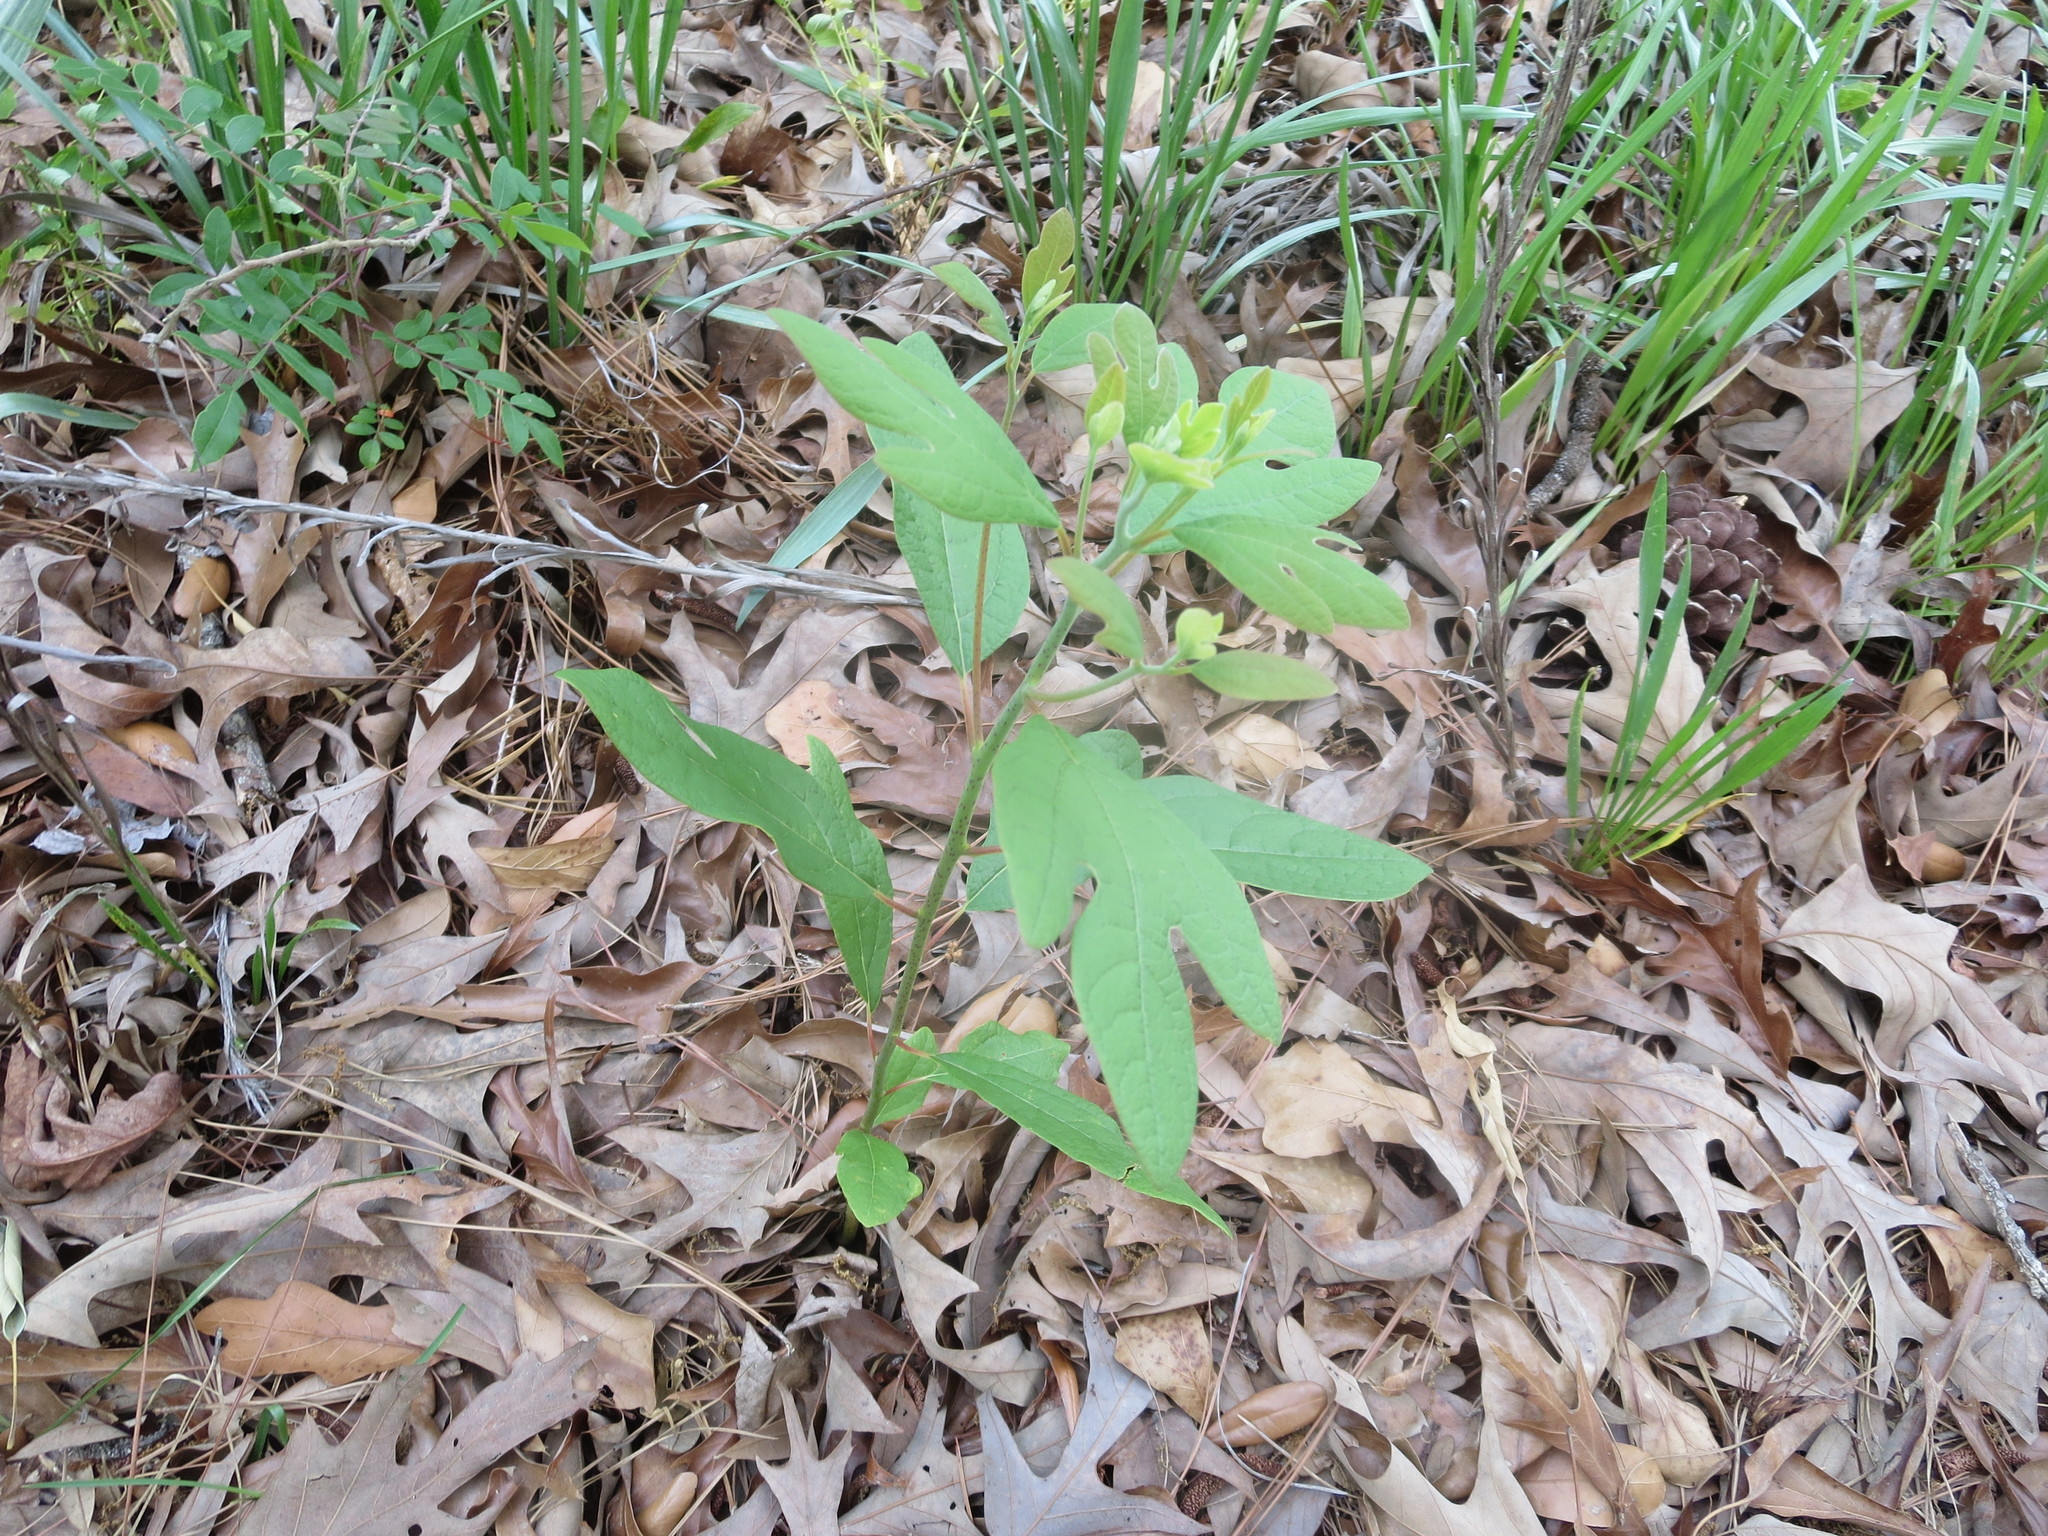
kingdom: Plantae
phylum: Tracheophyta
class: Magnoliopsida
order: Laurales
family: Lauraceae
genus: Sassafras
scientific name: Sassafras albidum
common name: Sassafras
